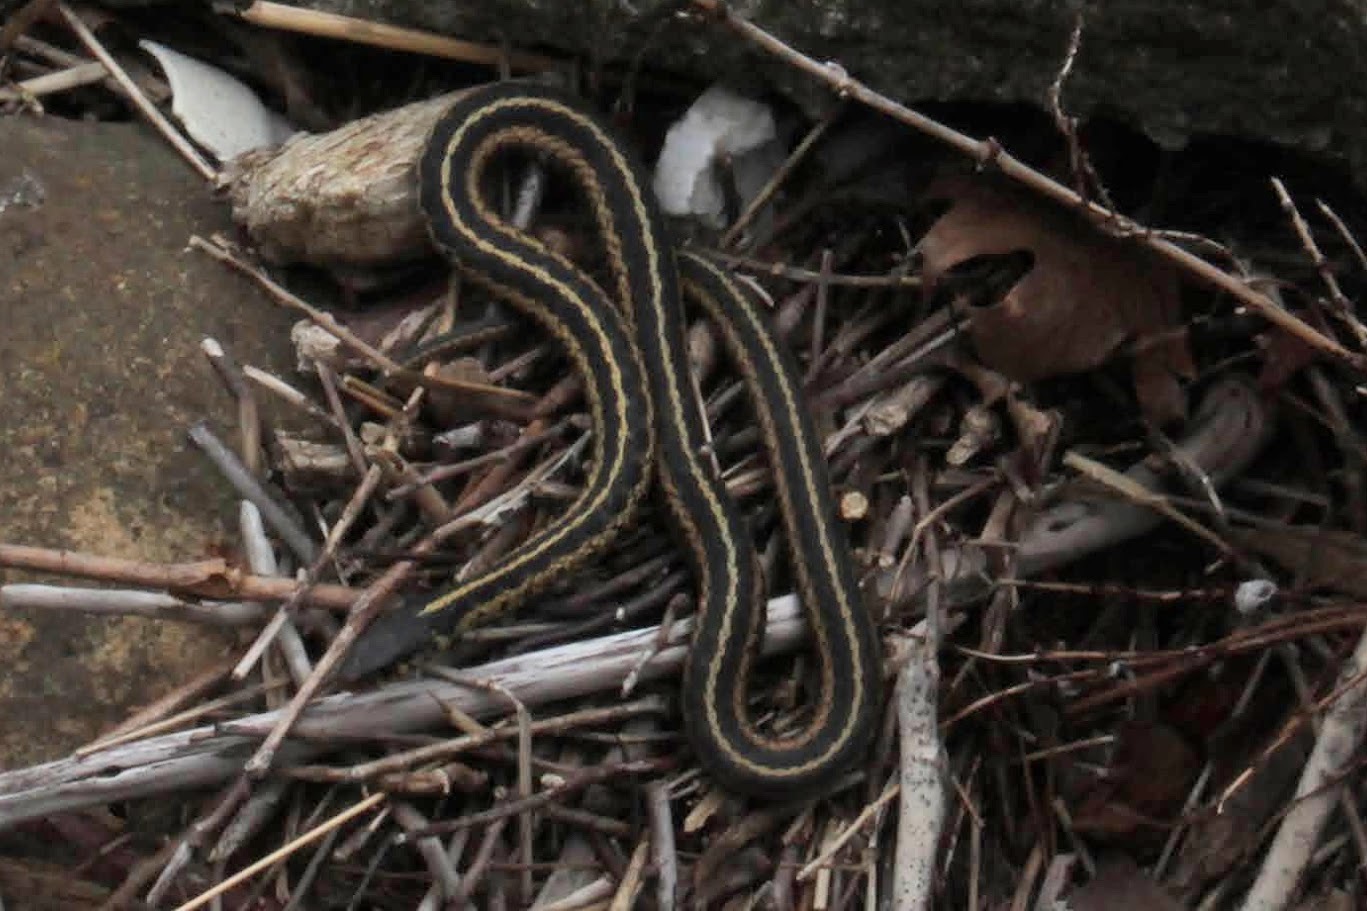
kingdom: Animalia
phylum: Chordata
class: Squamata
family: Colubridae
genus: Thamnophis
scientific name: Thamnophis sirtalis
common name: Common garter snake
